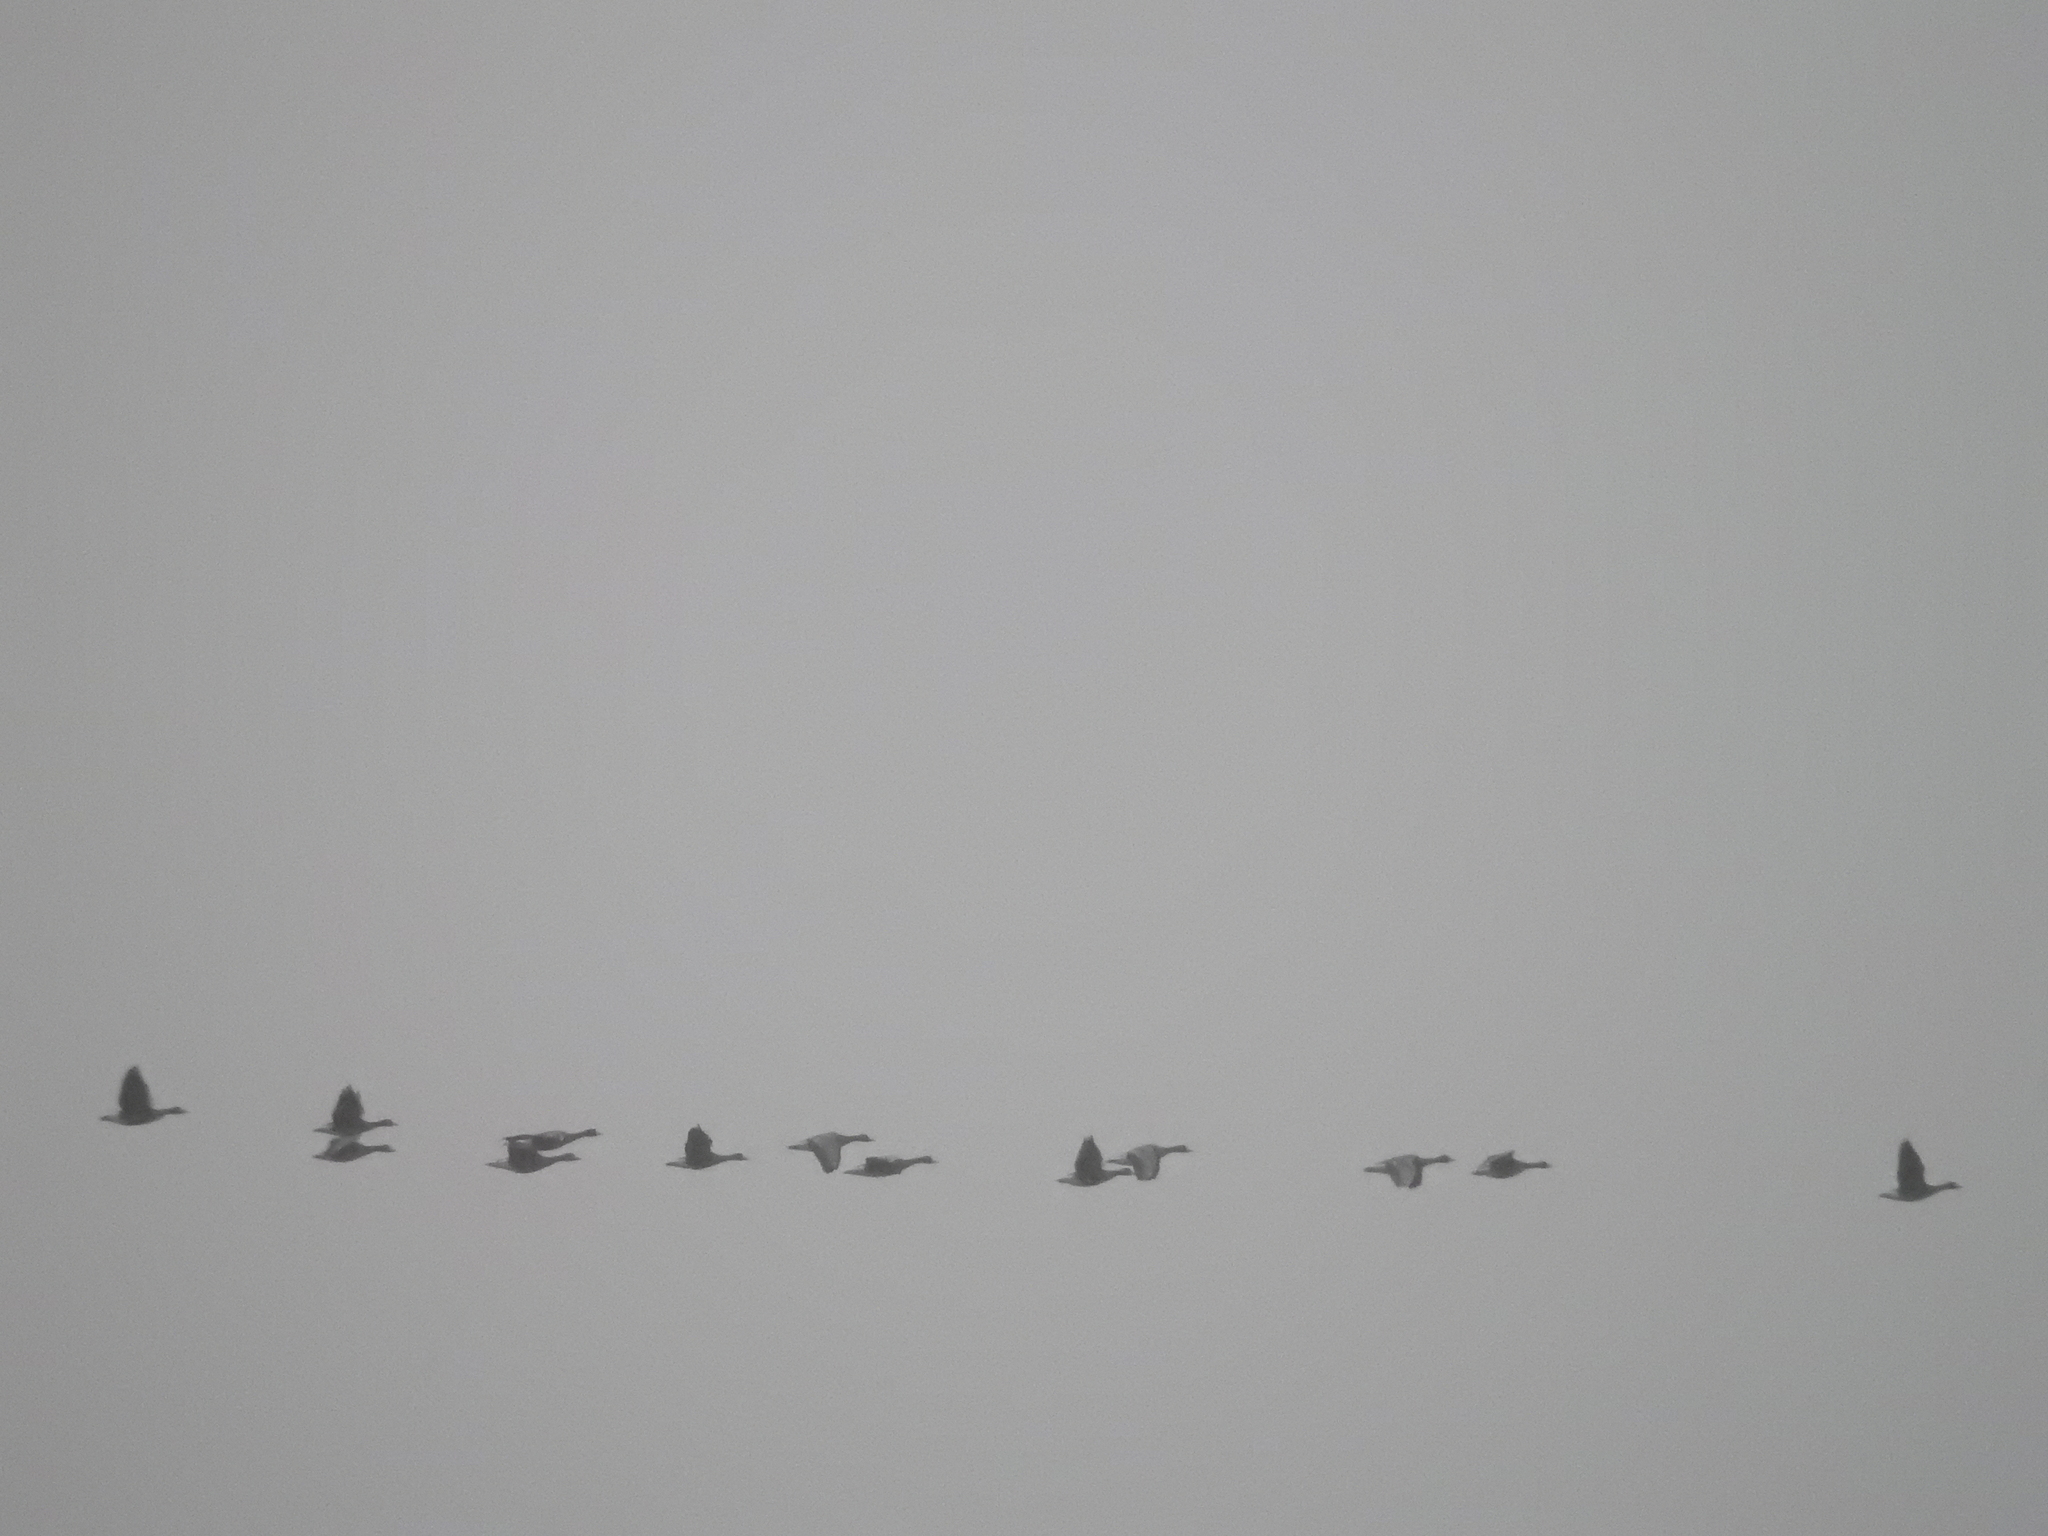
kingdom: Animalia
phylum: Chordata
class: Aves
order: Anseriformes
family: Anatidae
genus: Anser
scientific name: Anser albifrons
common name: Greater white-fronted goose
